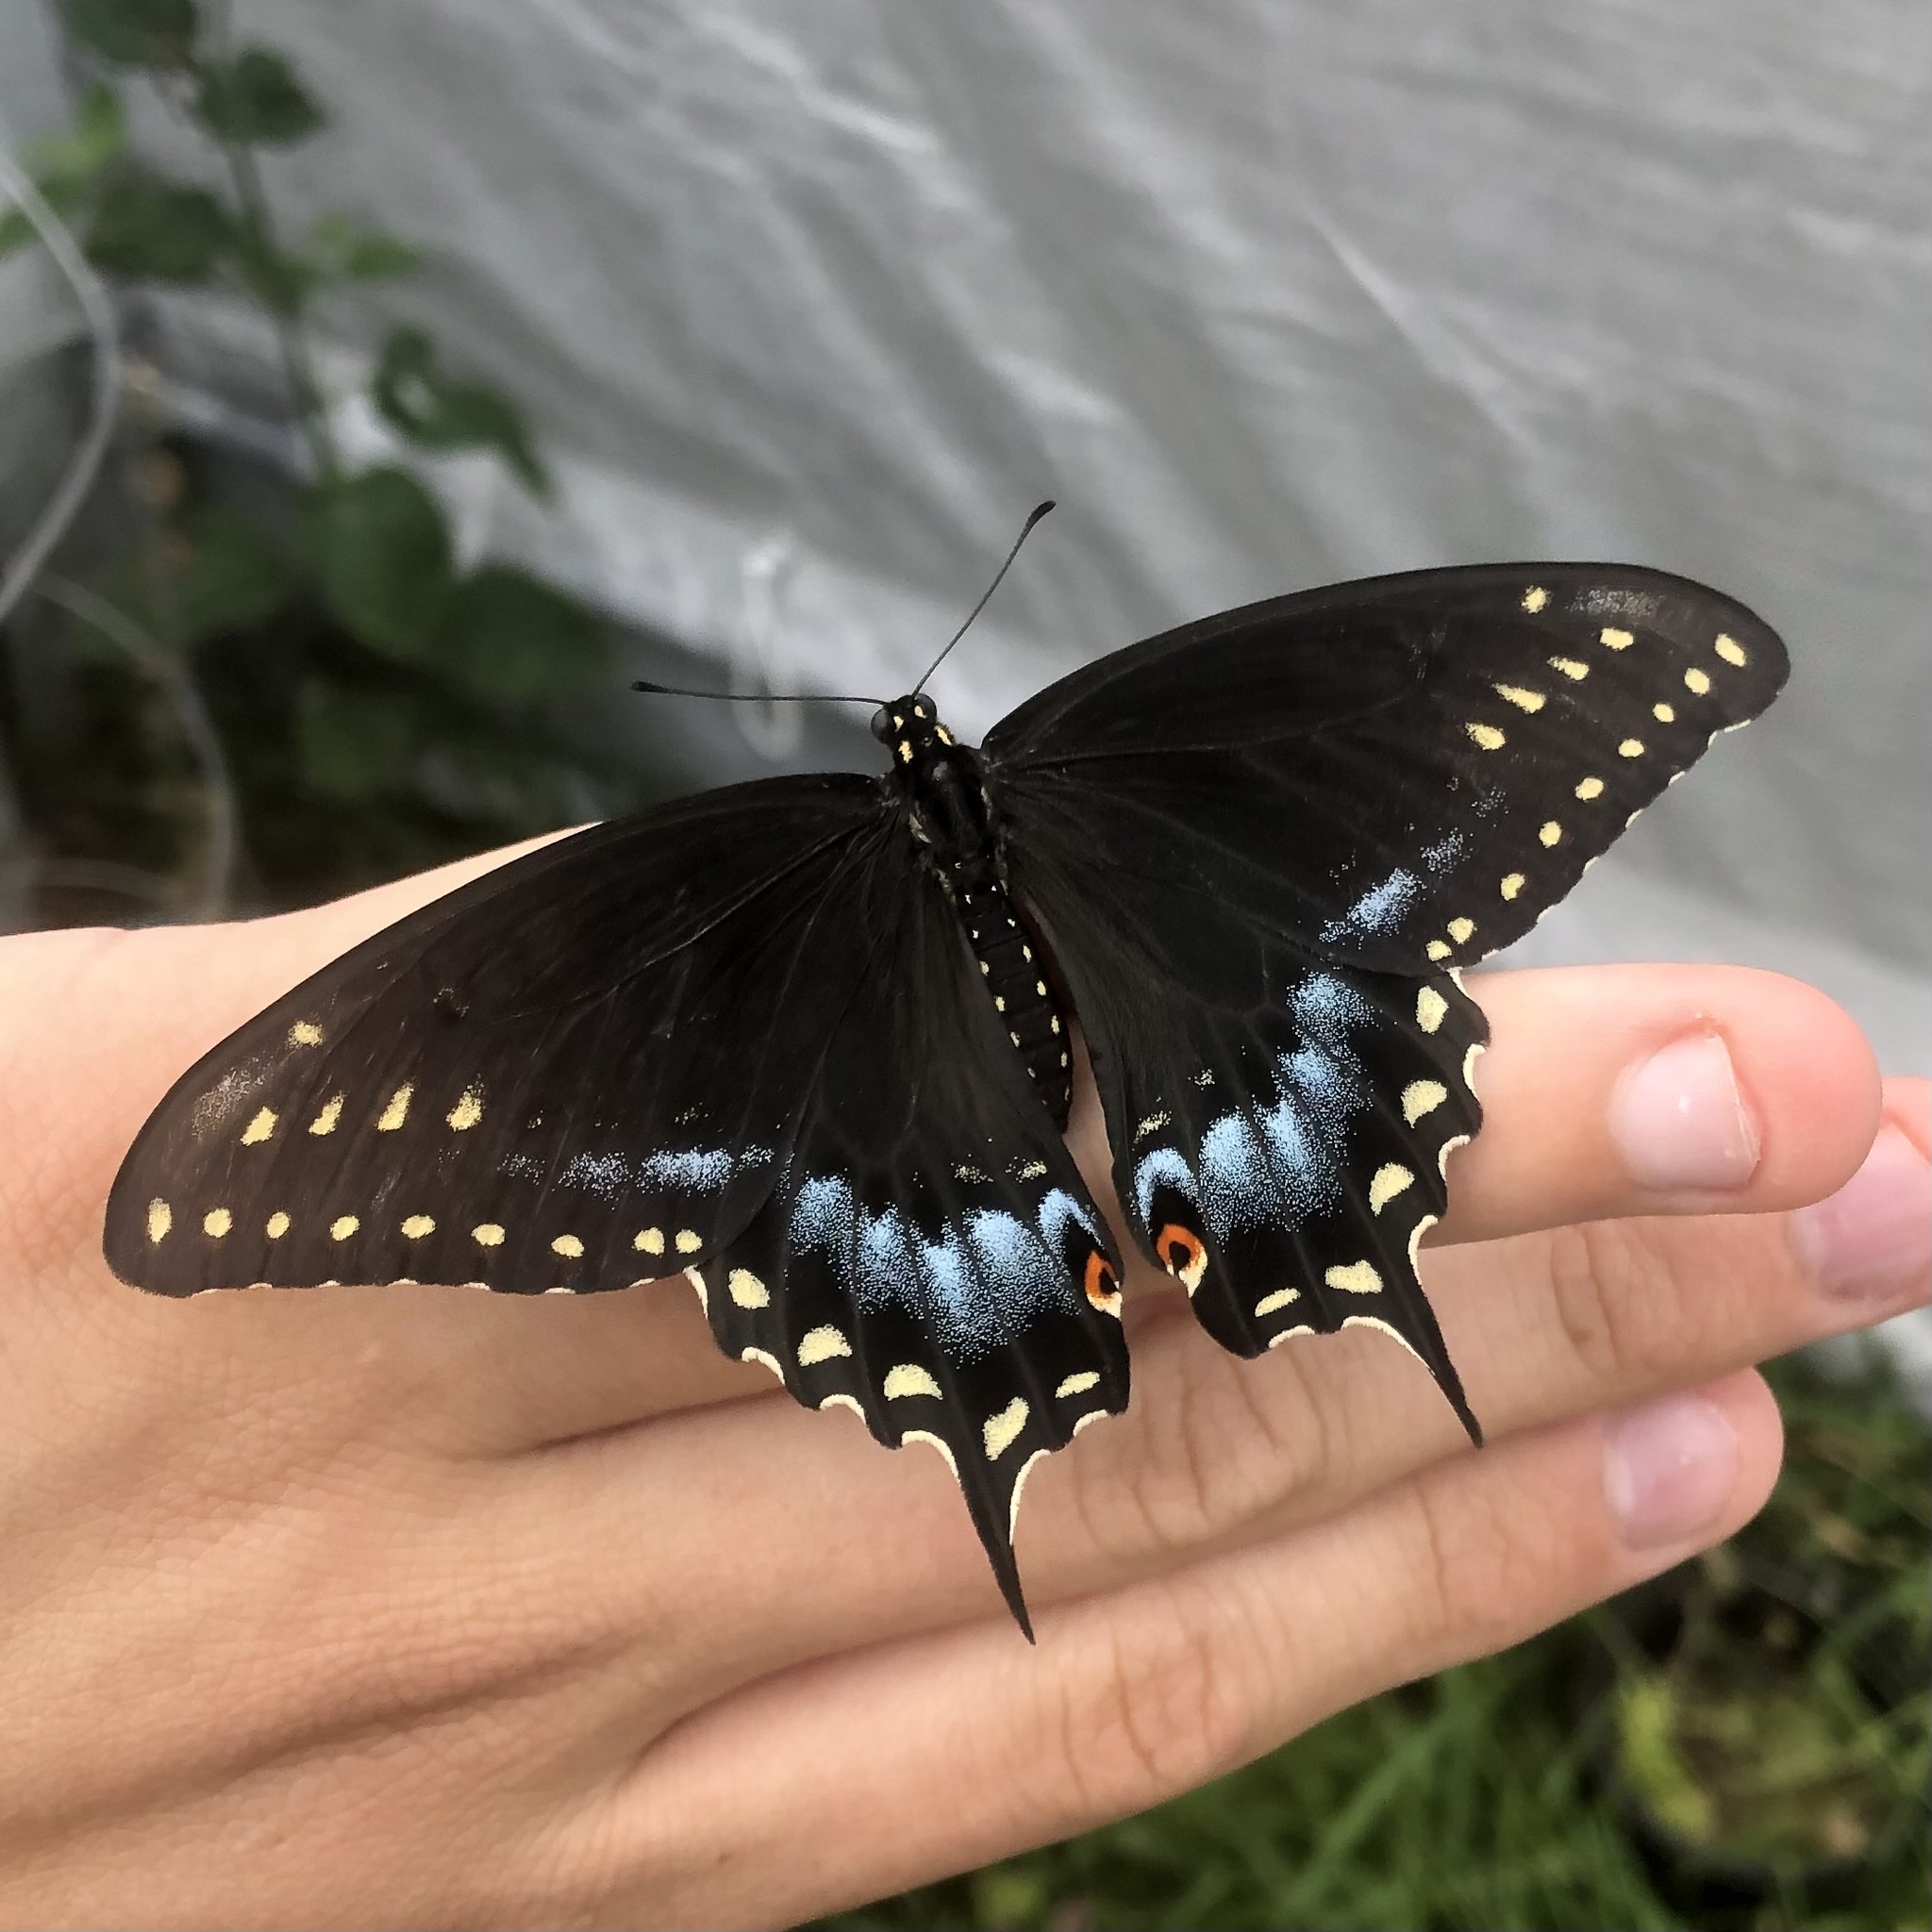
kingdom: Animalia
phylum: Arthropoda
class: Insecta
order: Lepidoptera
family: Papilionidae
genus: Papilio
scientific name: Papilio polyxenes
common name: Black swallowtail
